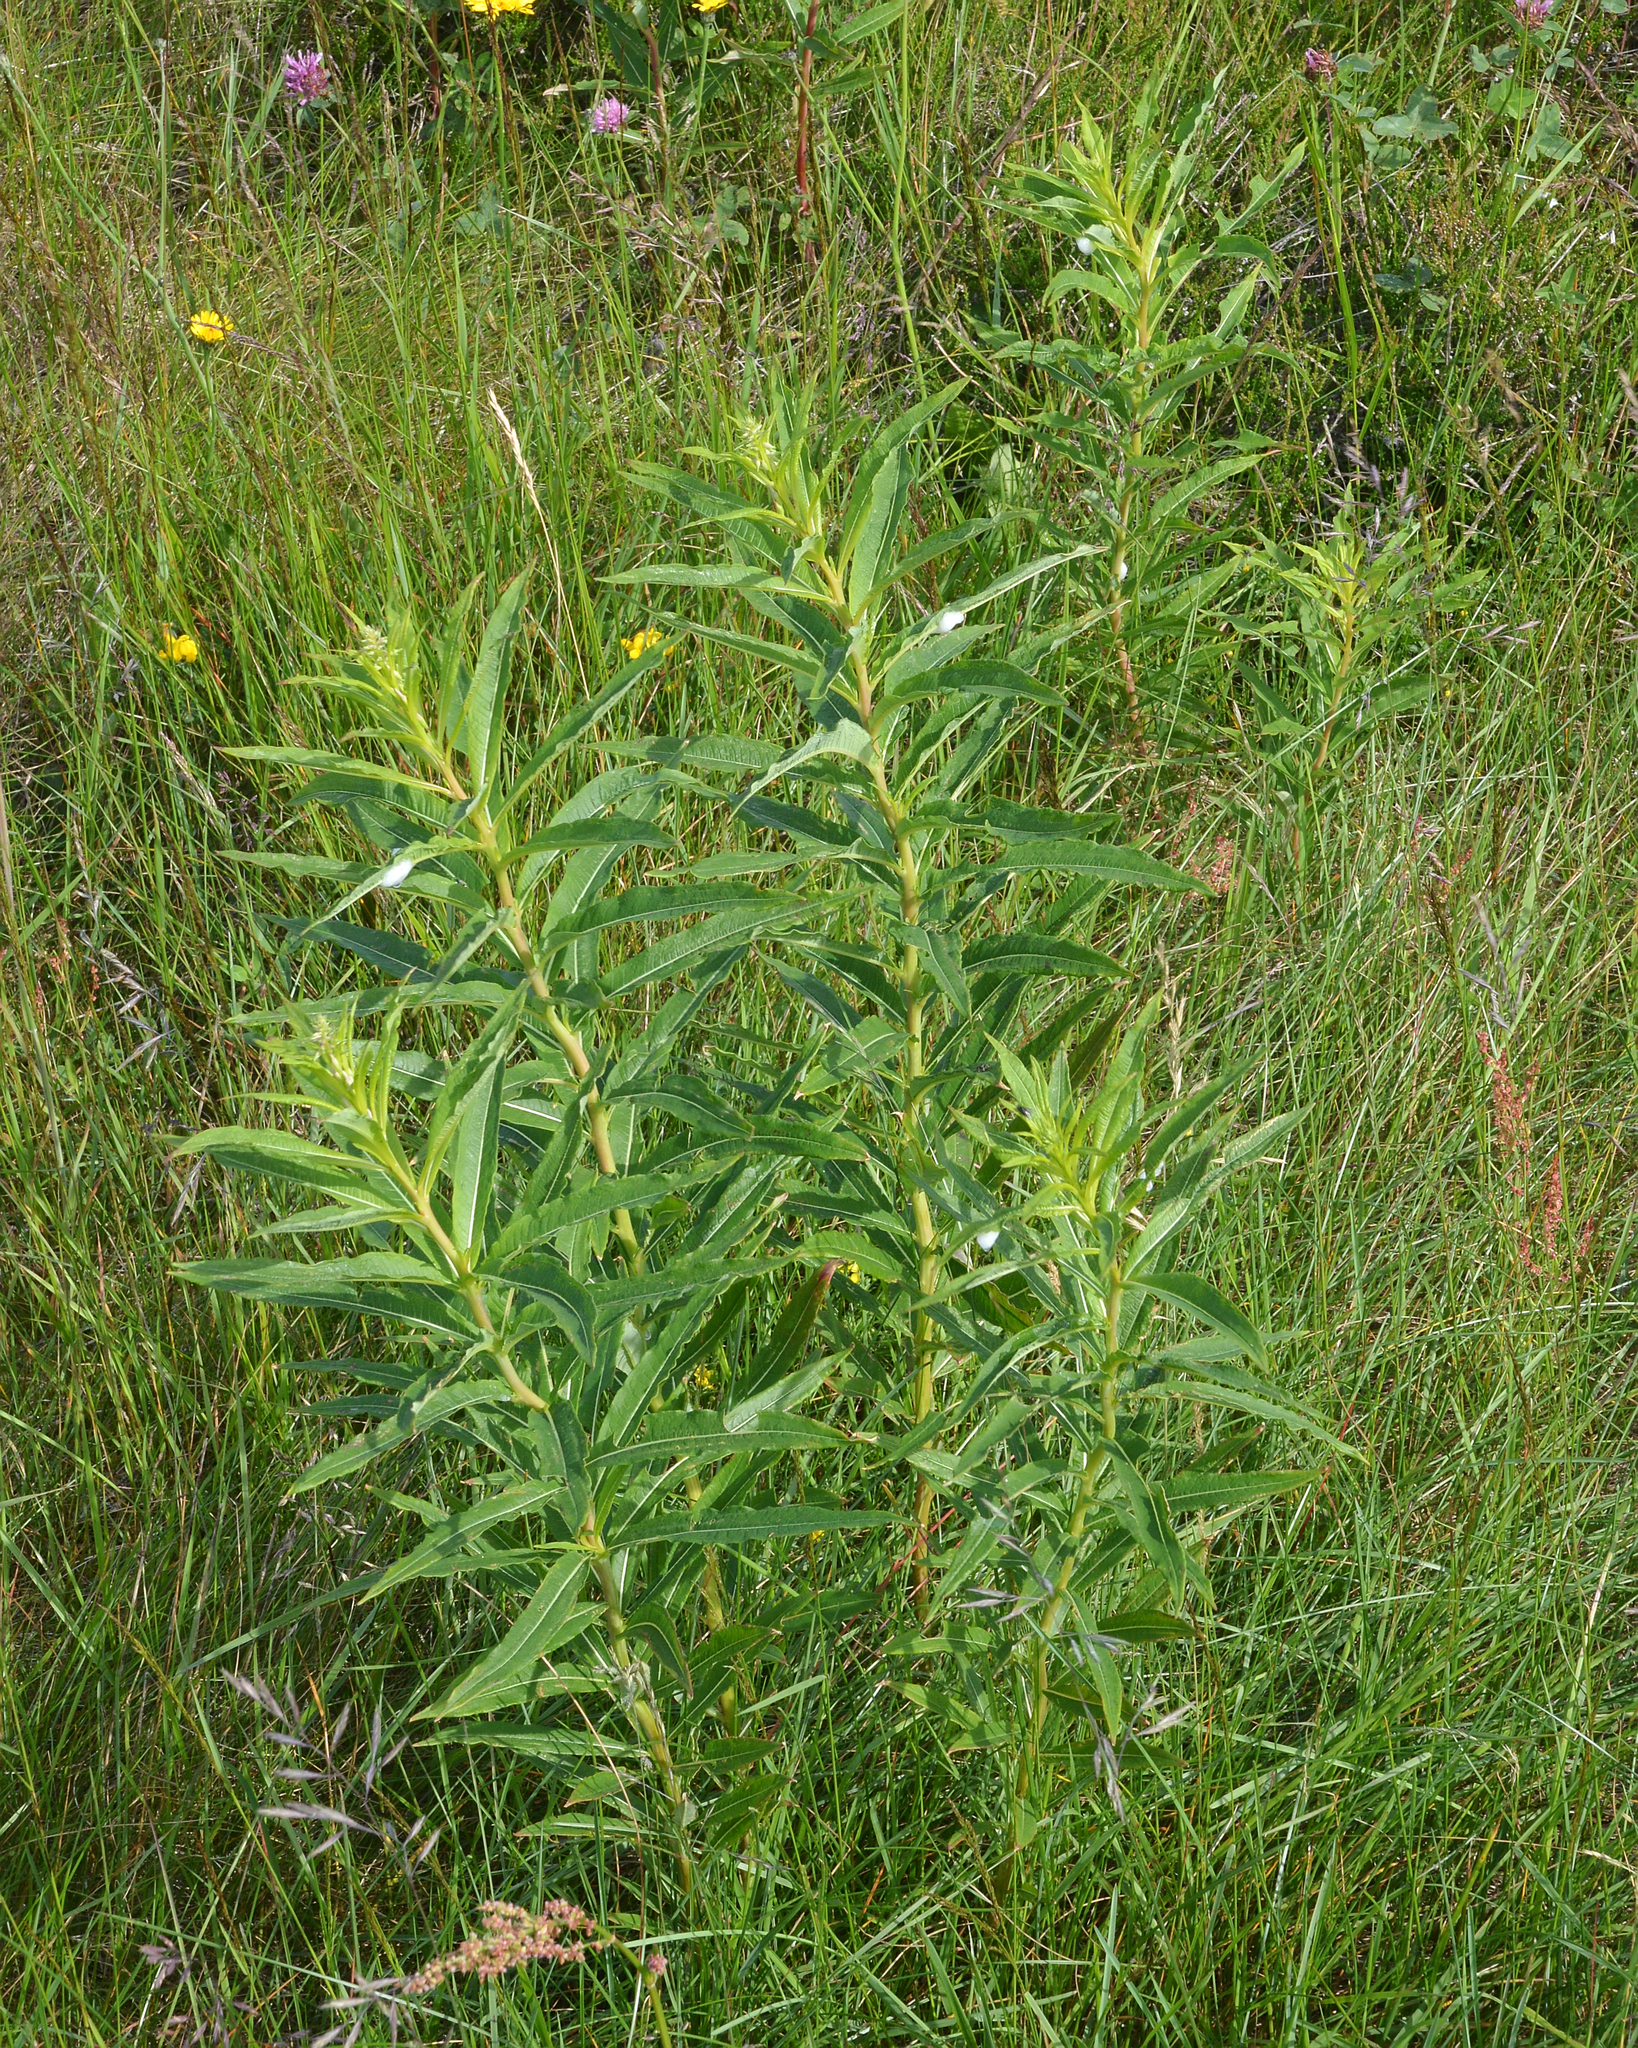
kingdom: Plantae
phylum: Tracheophyta
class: Magnoliopsida
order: Myrtales
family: Onagraceae
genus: Chamaenerion
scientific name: Chamaenerion angustifolium
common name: Fireweed
